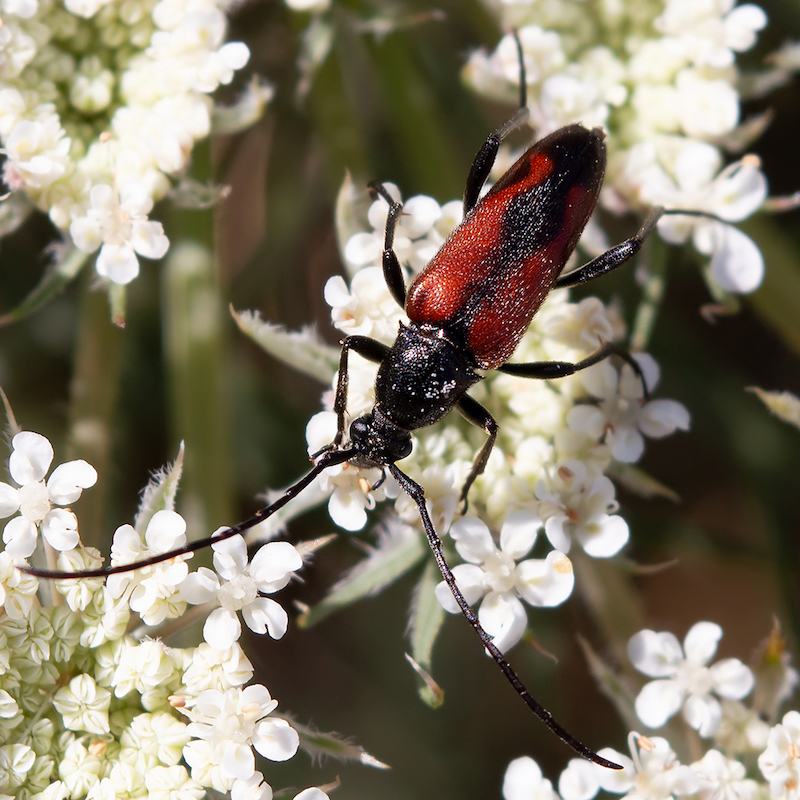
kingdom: Animalia
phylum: Arthropoda
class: Insecta
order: Coleoptera
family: Cerambycidae
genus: Stenurella
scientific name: Stenurella bifasciata
